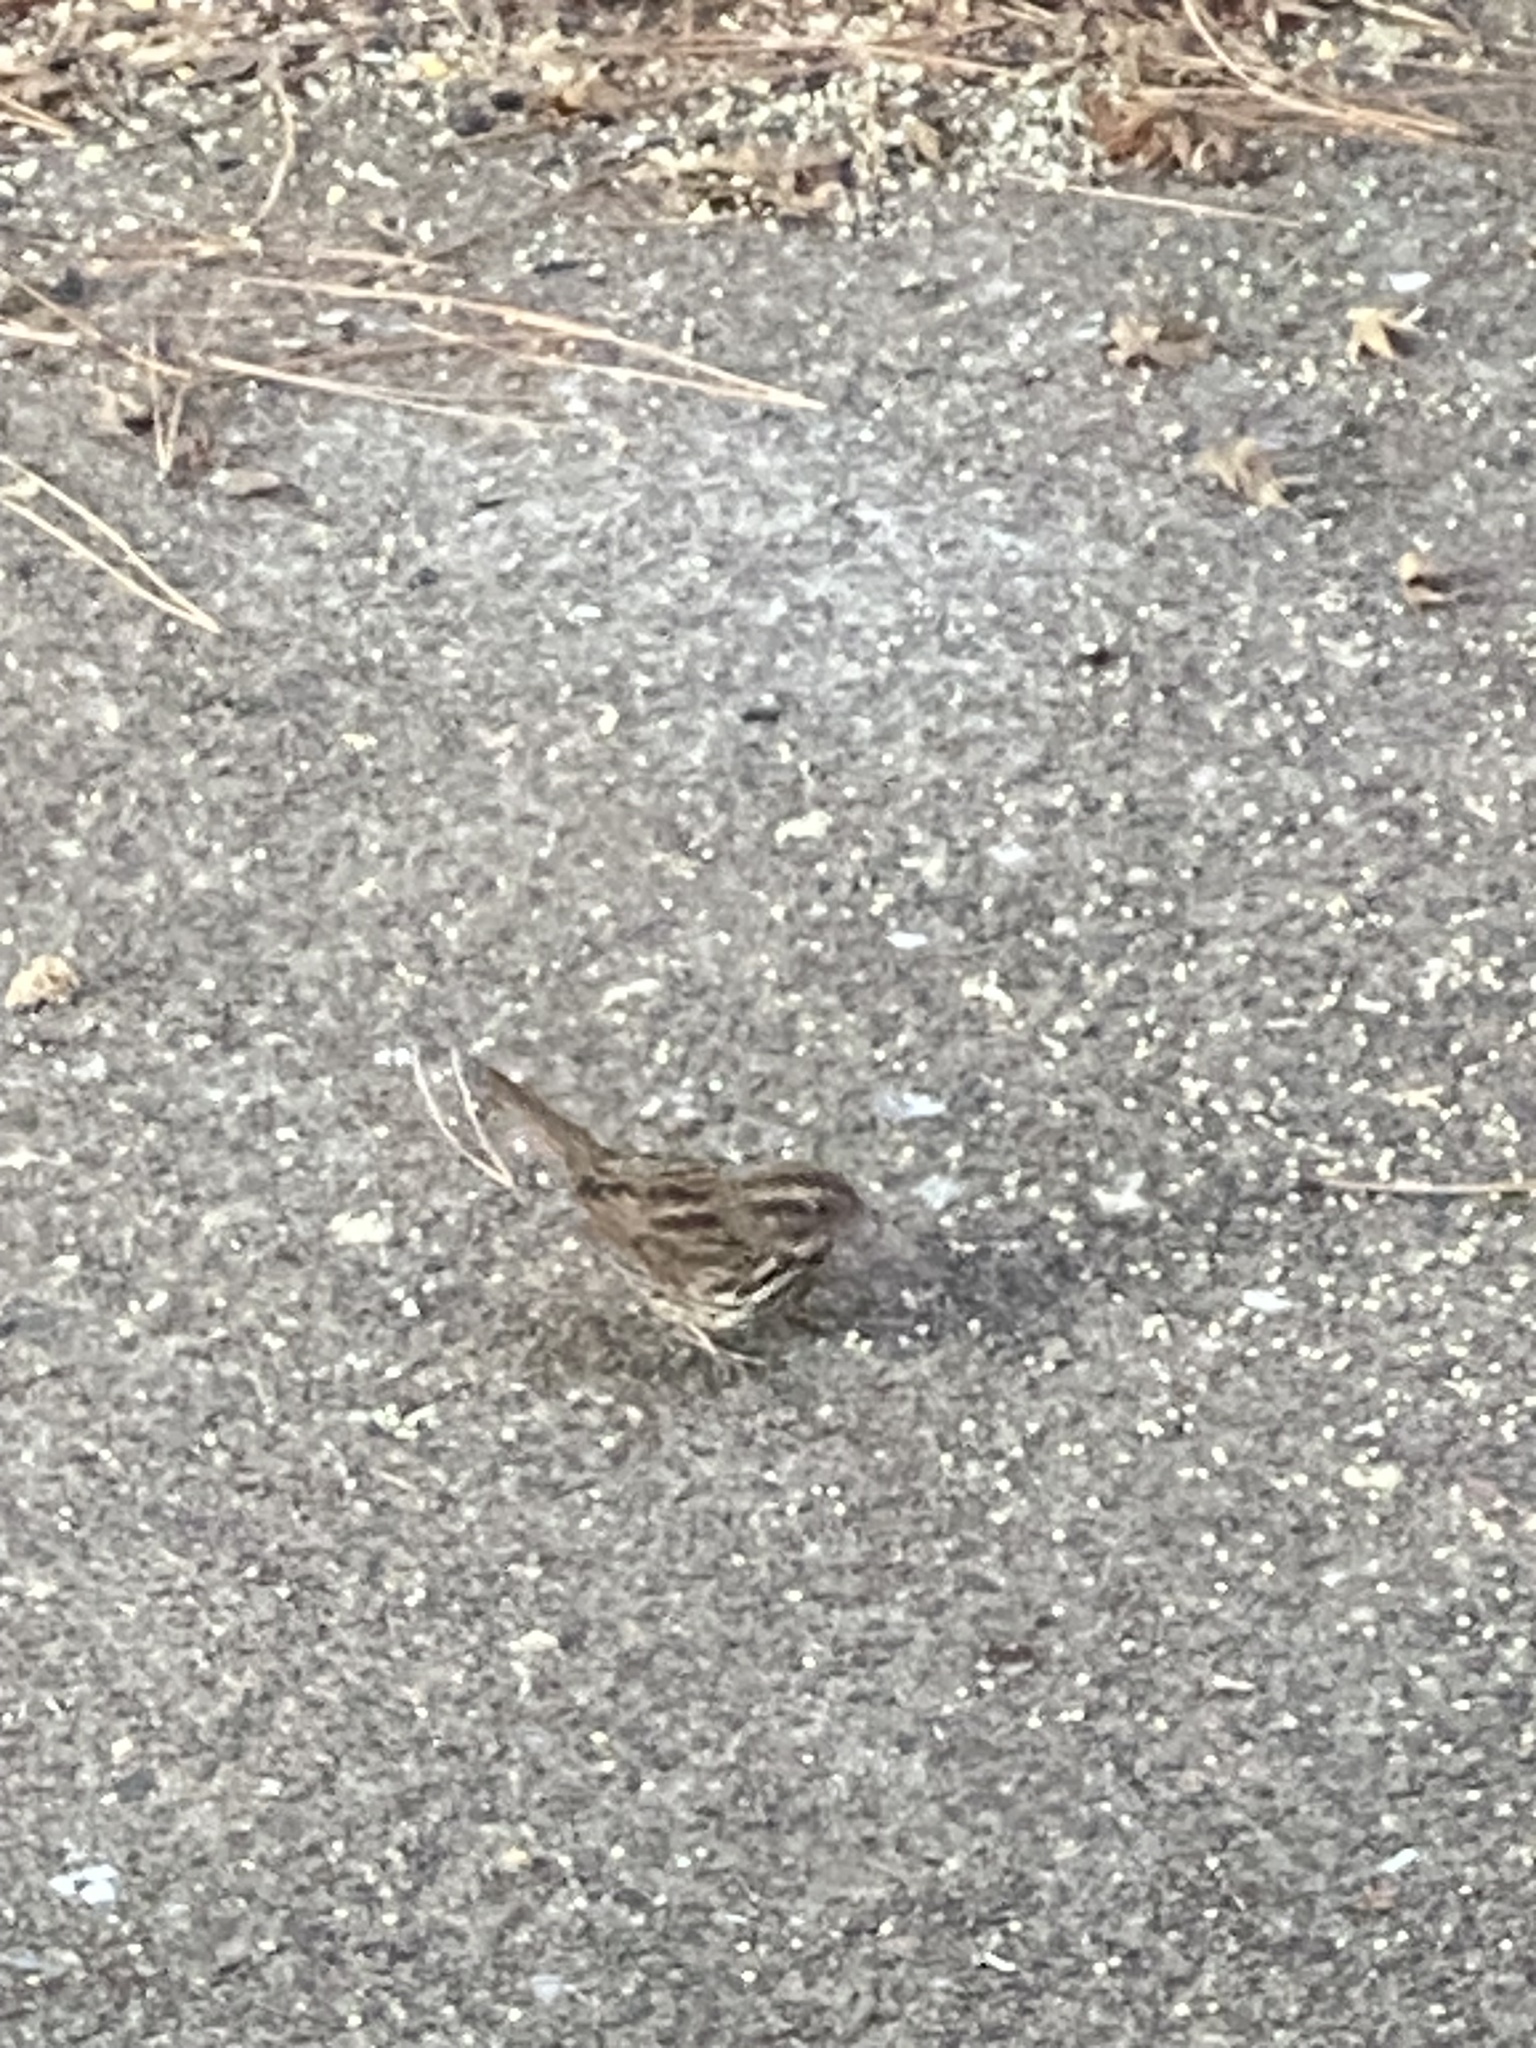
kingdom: Animalia
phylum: Chordata
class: Aves
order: Passeriformes
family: Passerellidae
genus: Melospiza
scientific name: Melospiza melodia
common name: Song sparrow
